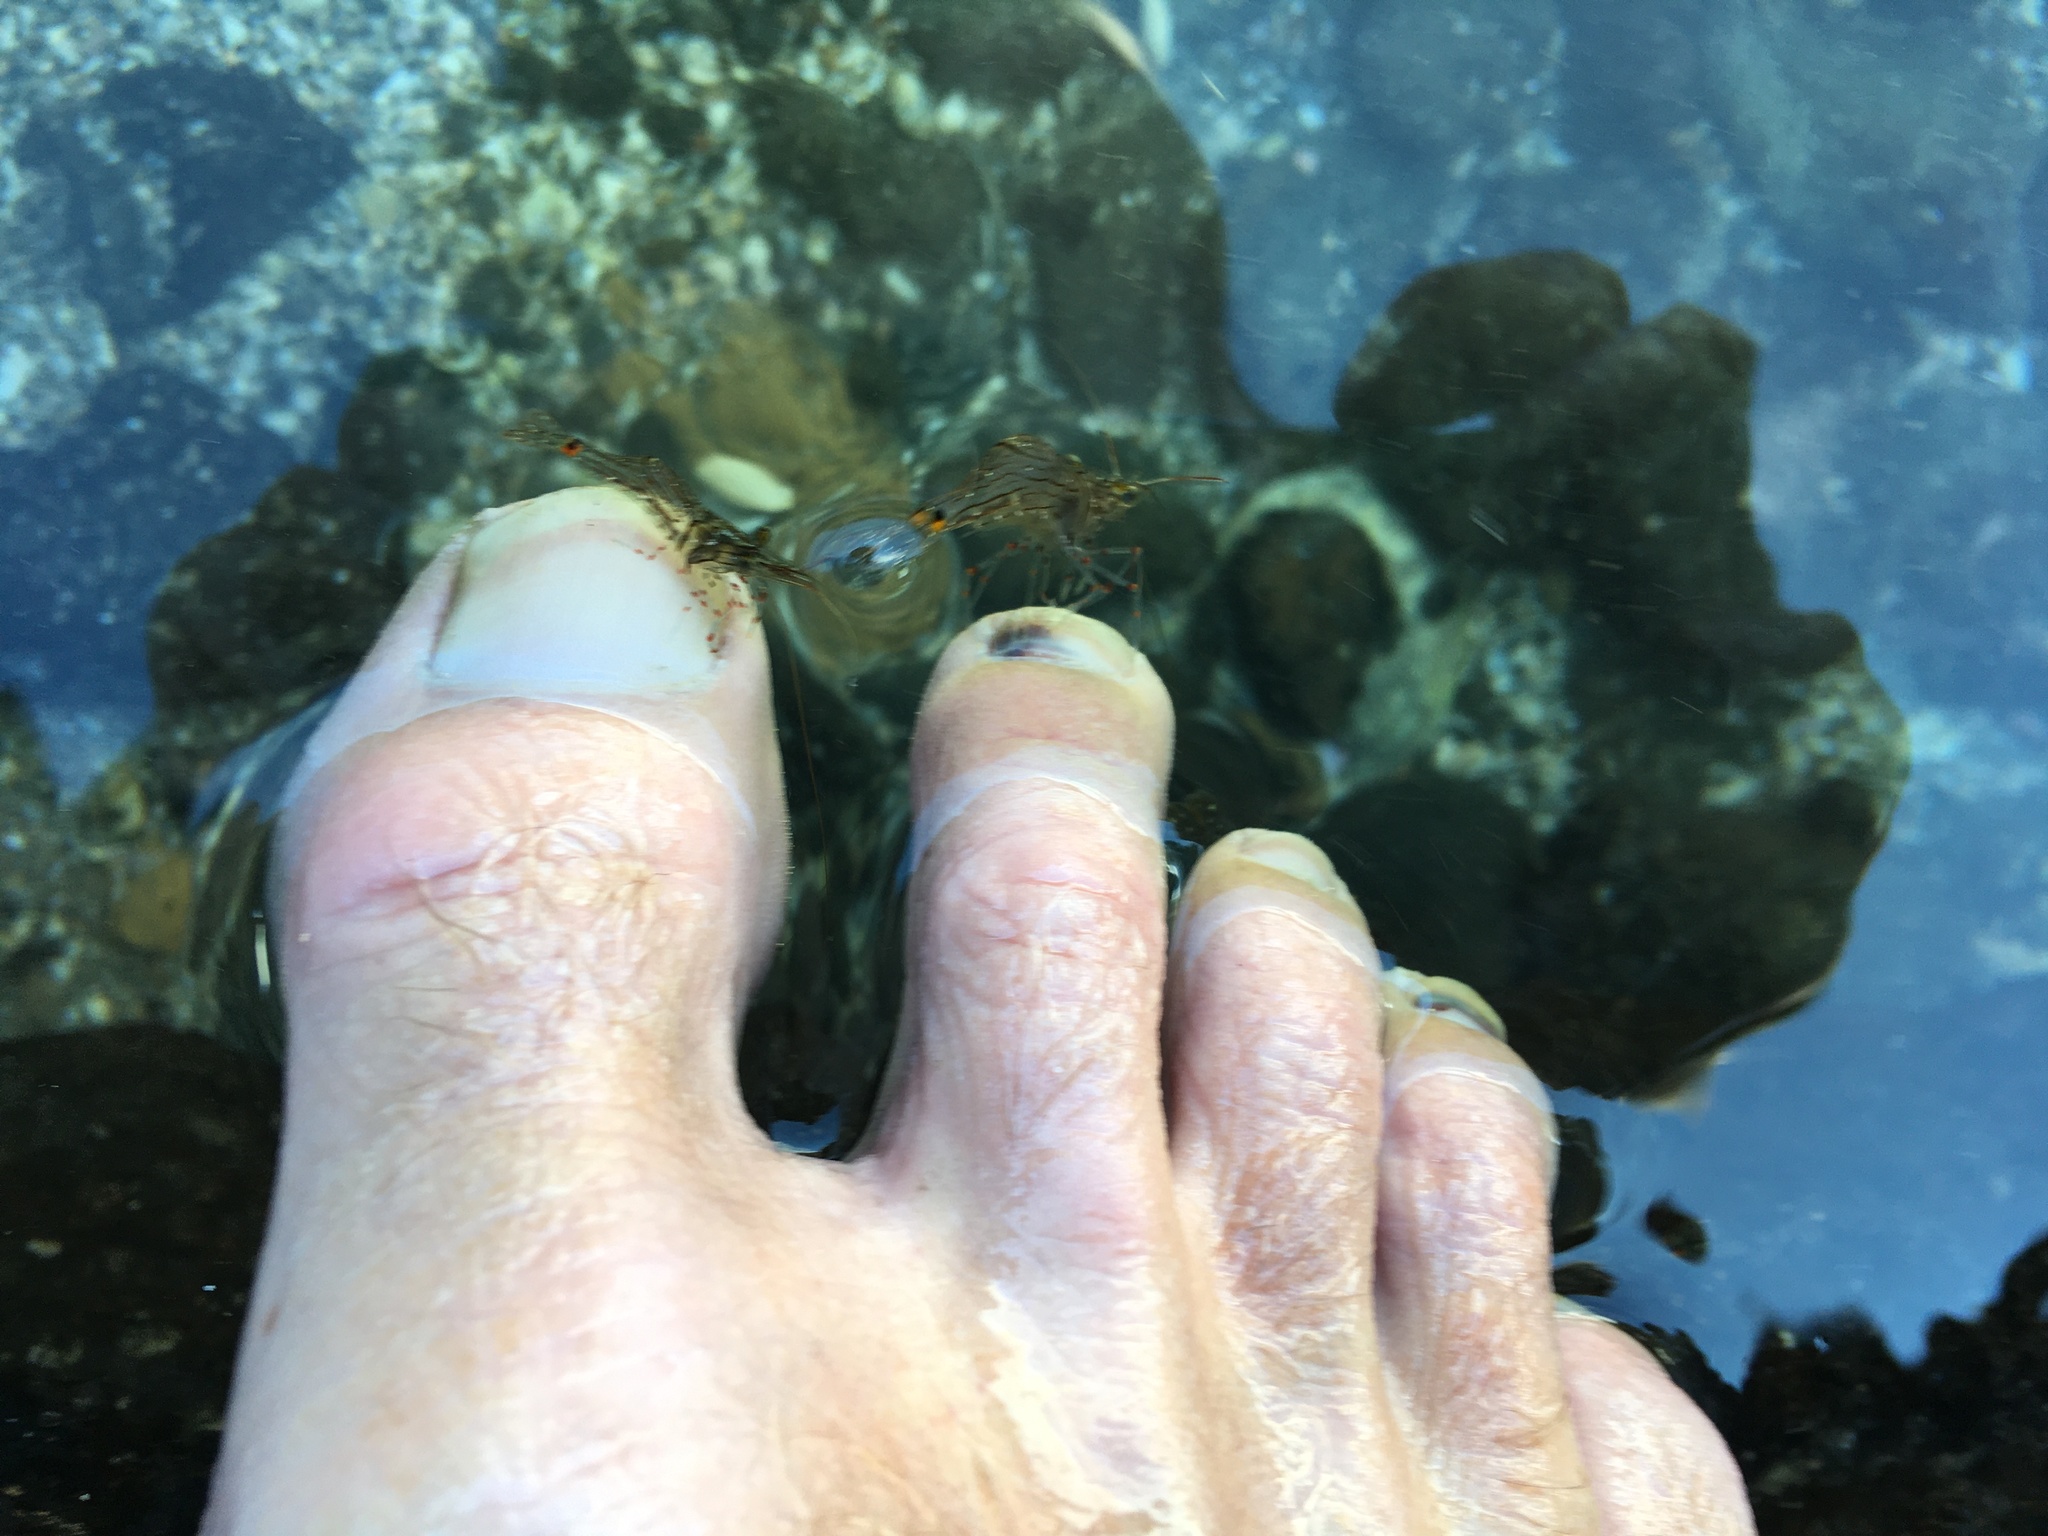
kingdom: Animalia
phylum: Arthropoda
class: Malacostraca
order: Decapoda
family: Palaemonidae
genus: Palaemon
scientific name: Palaemon affinis
